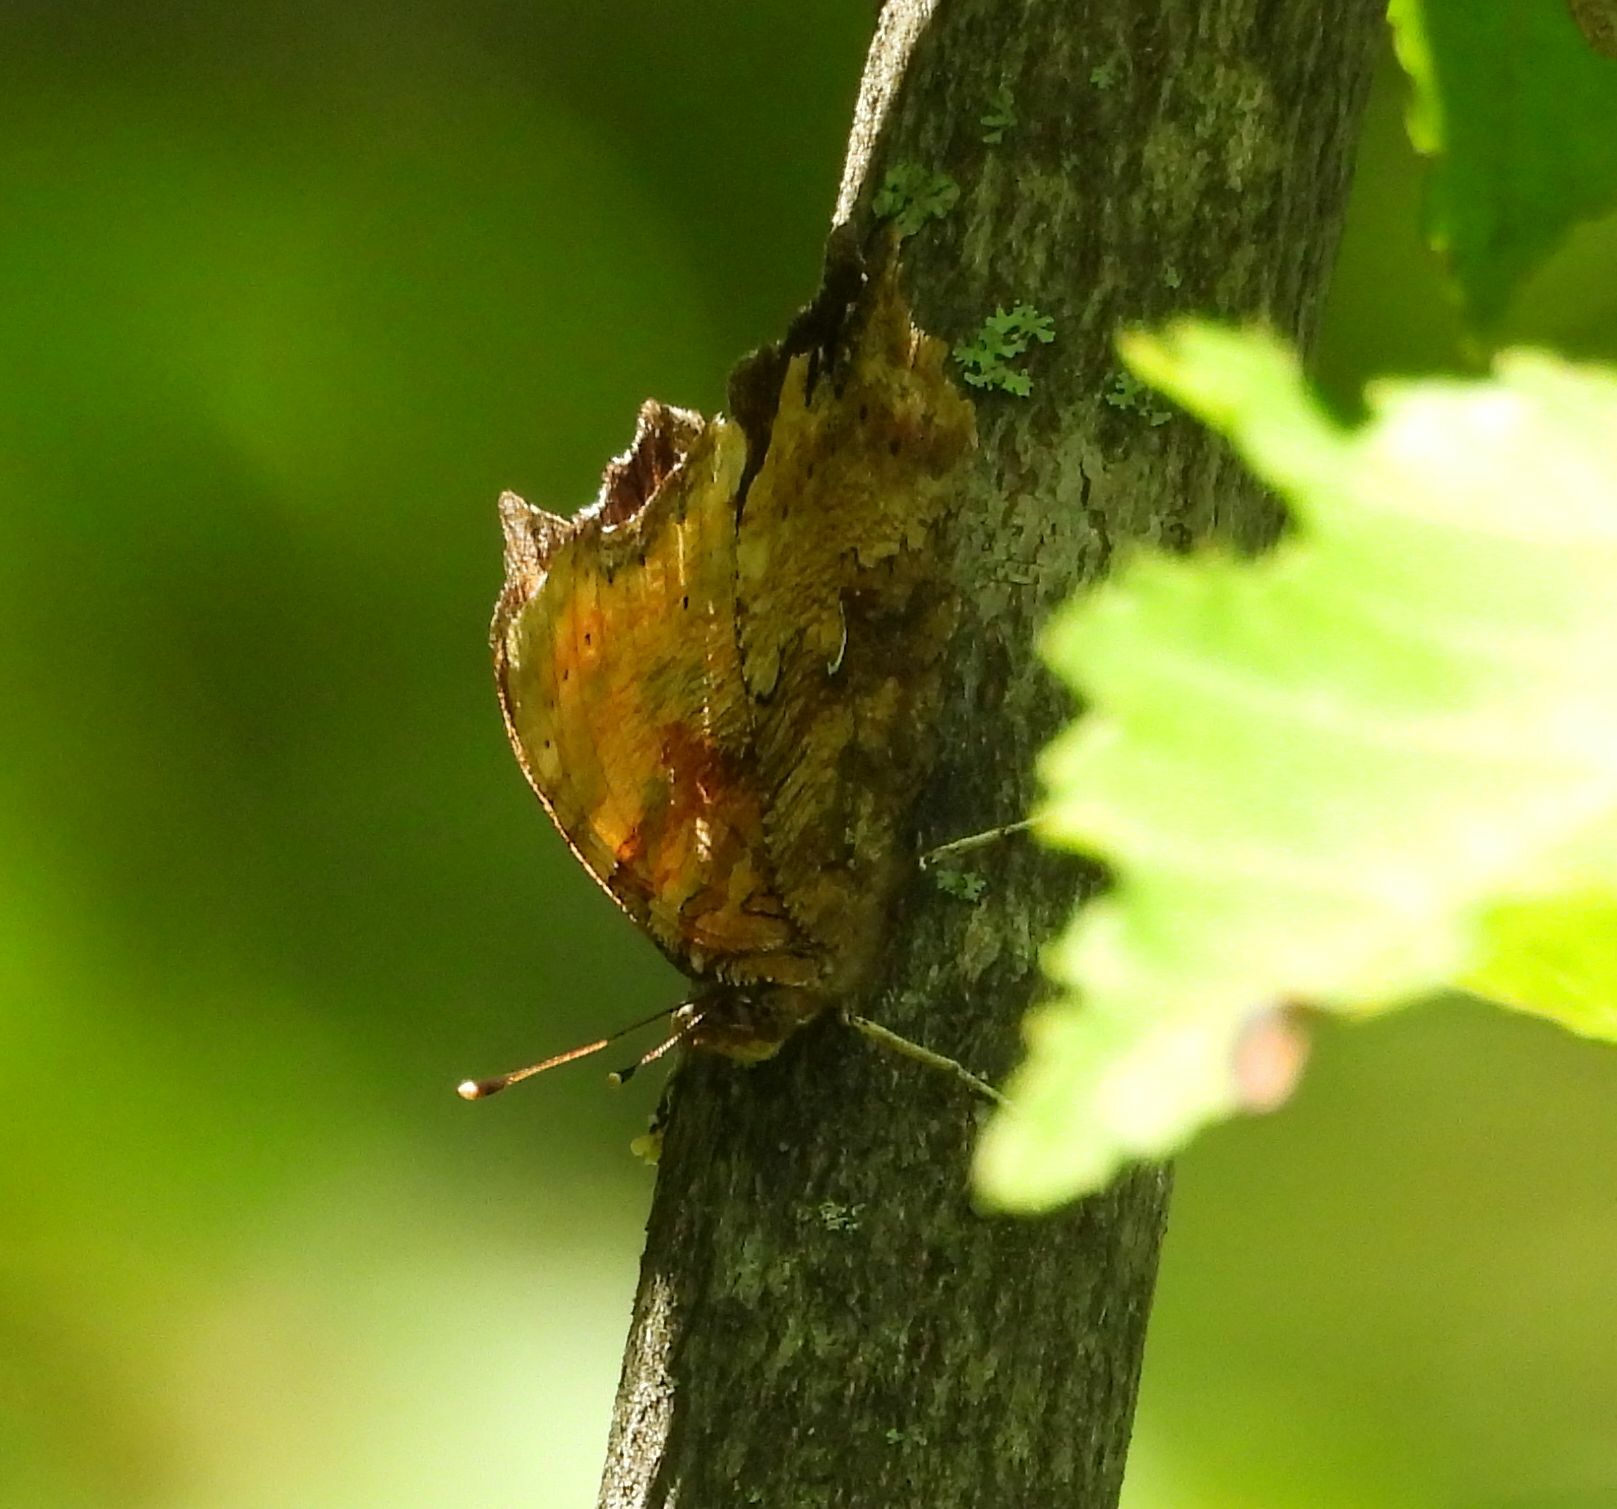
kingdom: Animalia
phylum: Arthropoda
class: Insecta
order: Lepidoptera
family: Nymphalidae
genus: Polygonia
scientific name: Polygonia comma
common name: Eastern comma
